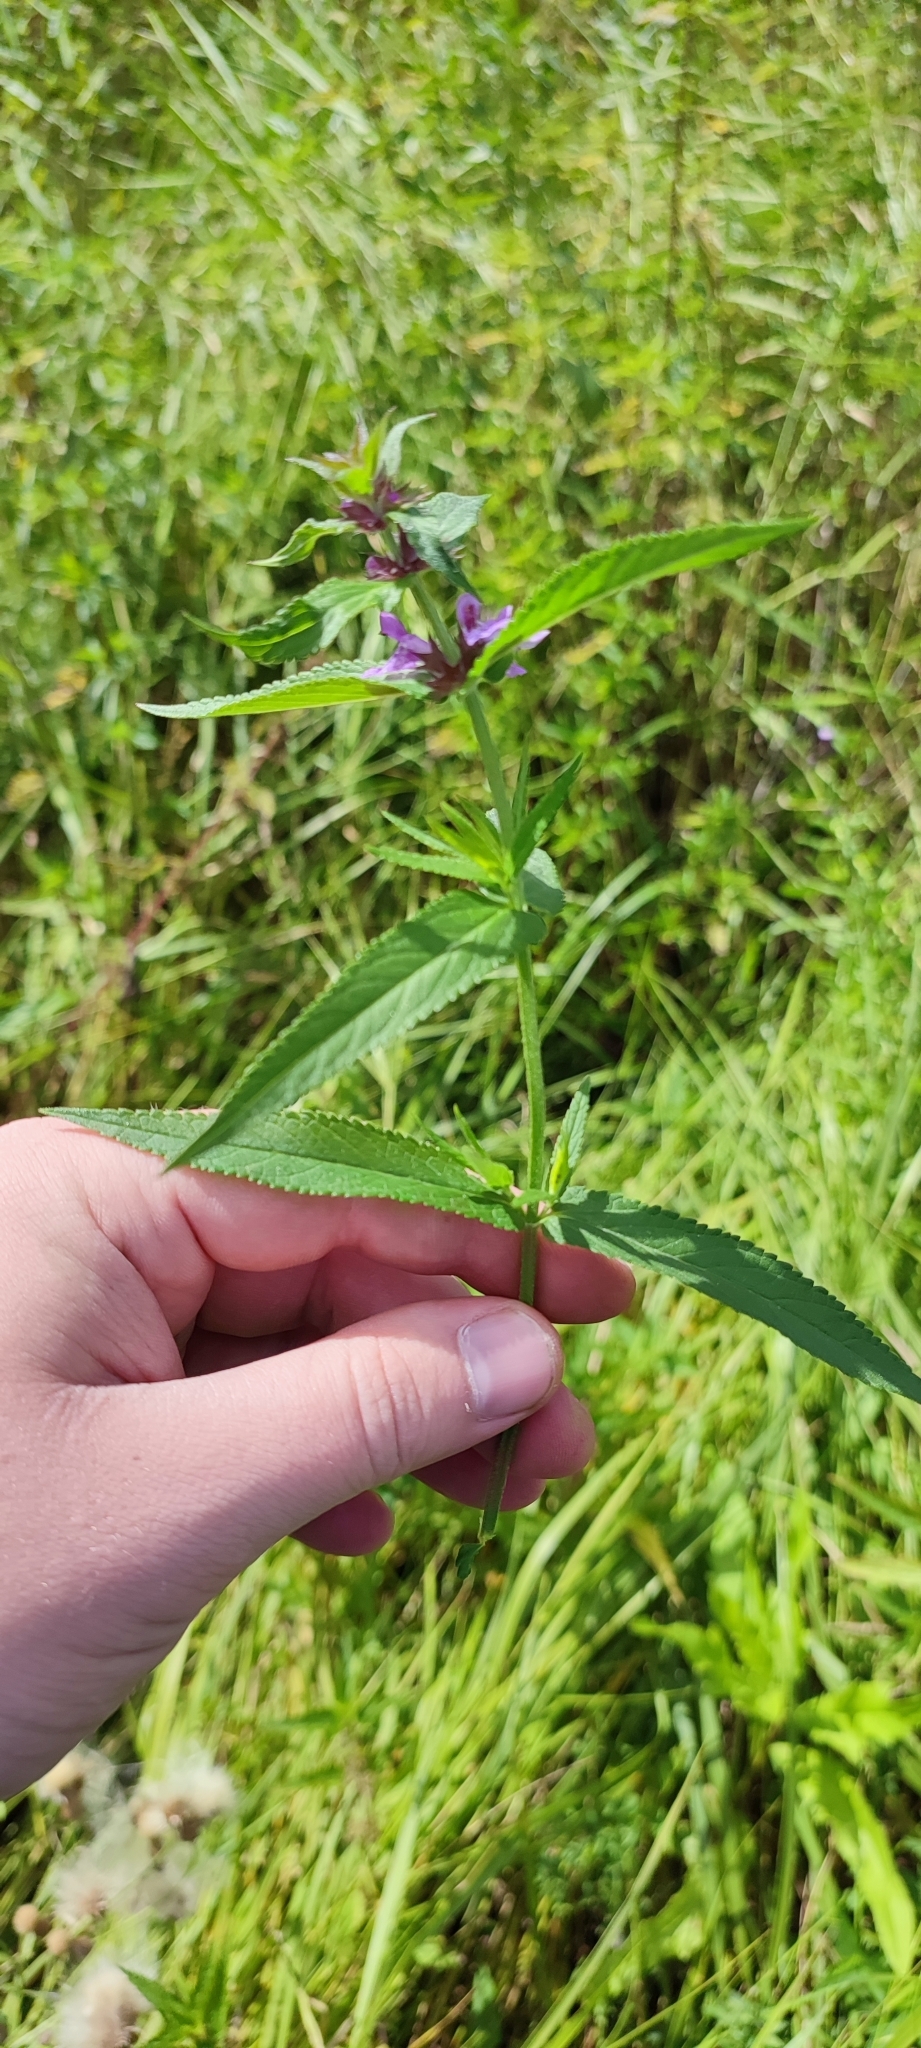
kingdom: Plantae
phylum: Tracheophyta
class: Magnoliopsida
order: Lamiales
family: Lamiaceae
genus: Stachys
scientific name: Stachys palustris
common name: Marsh woundwort
